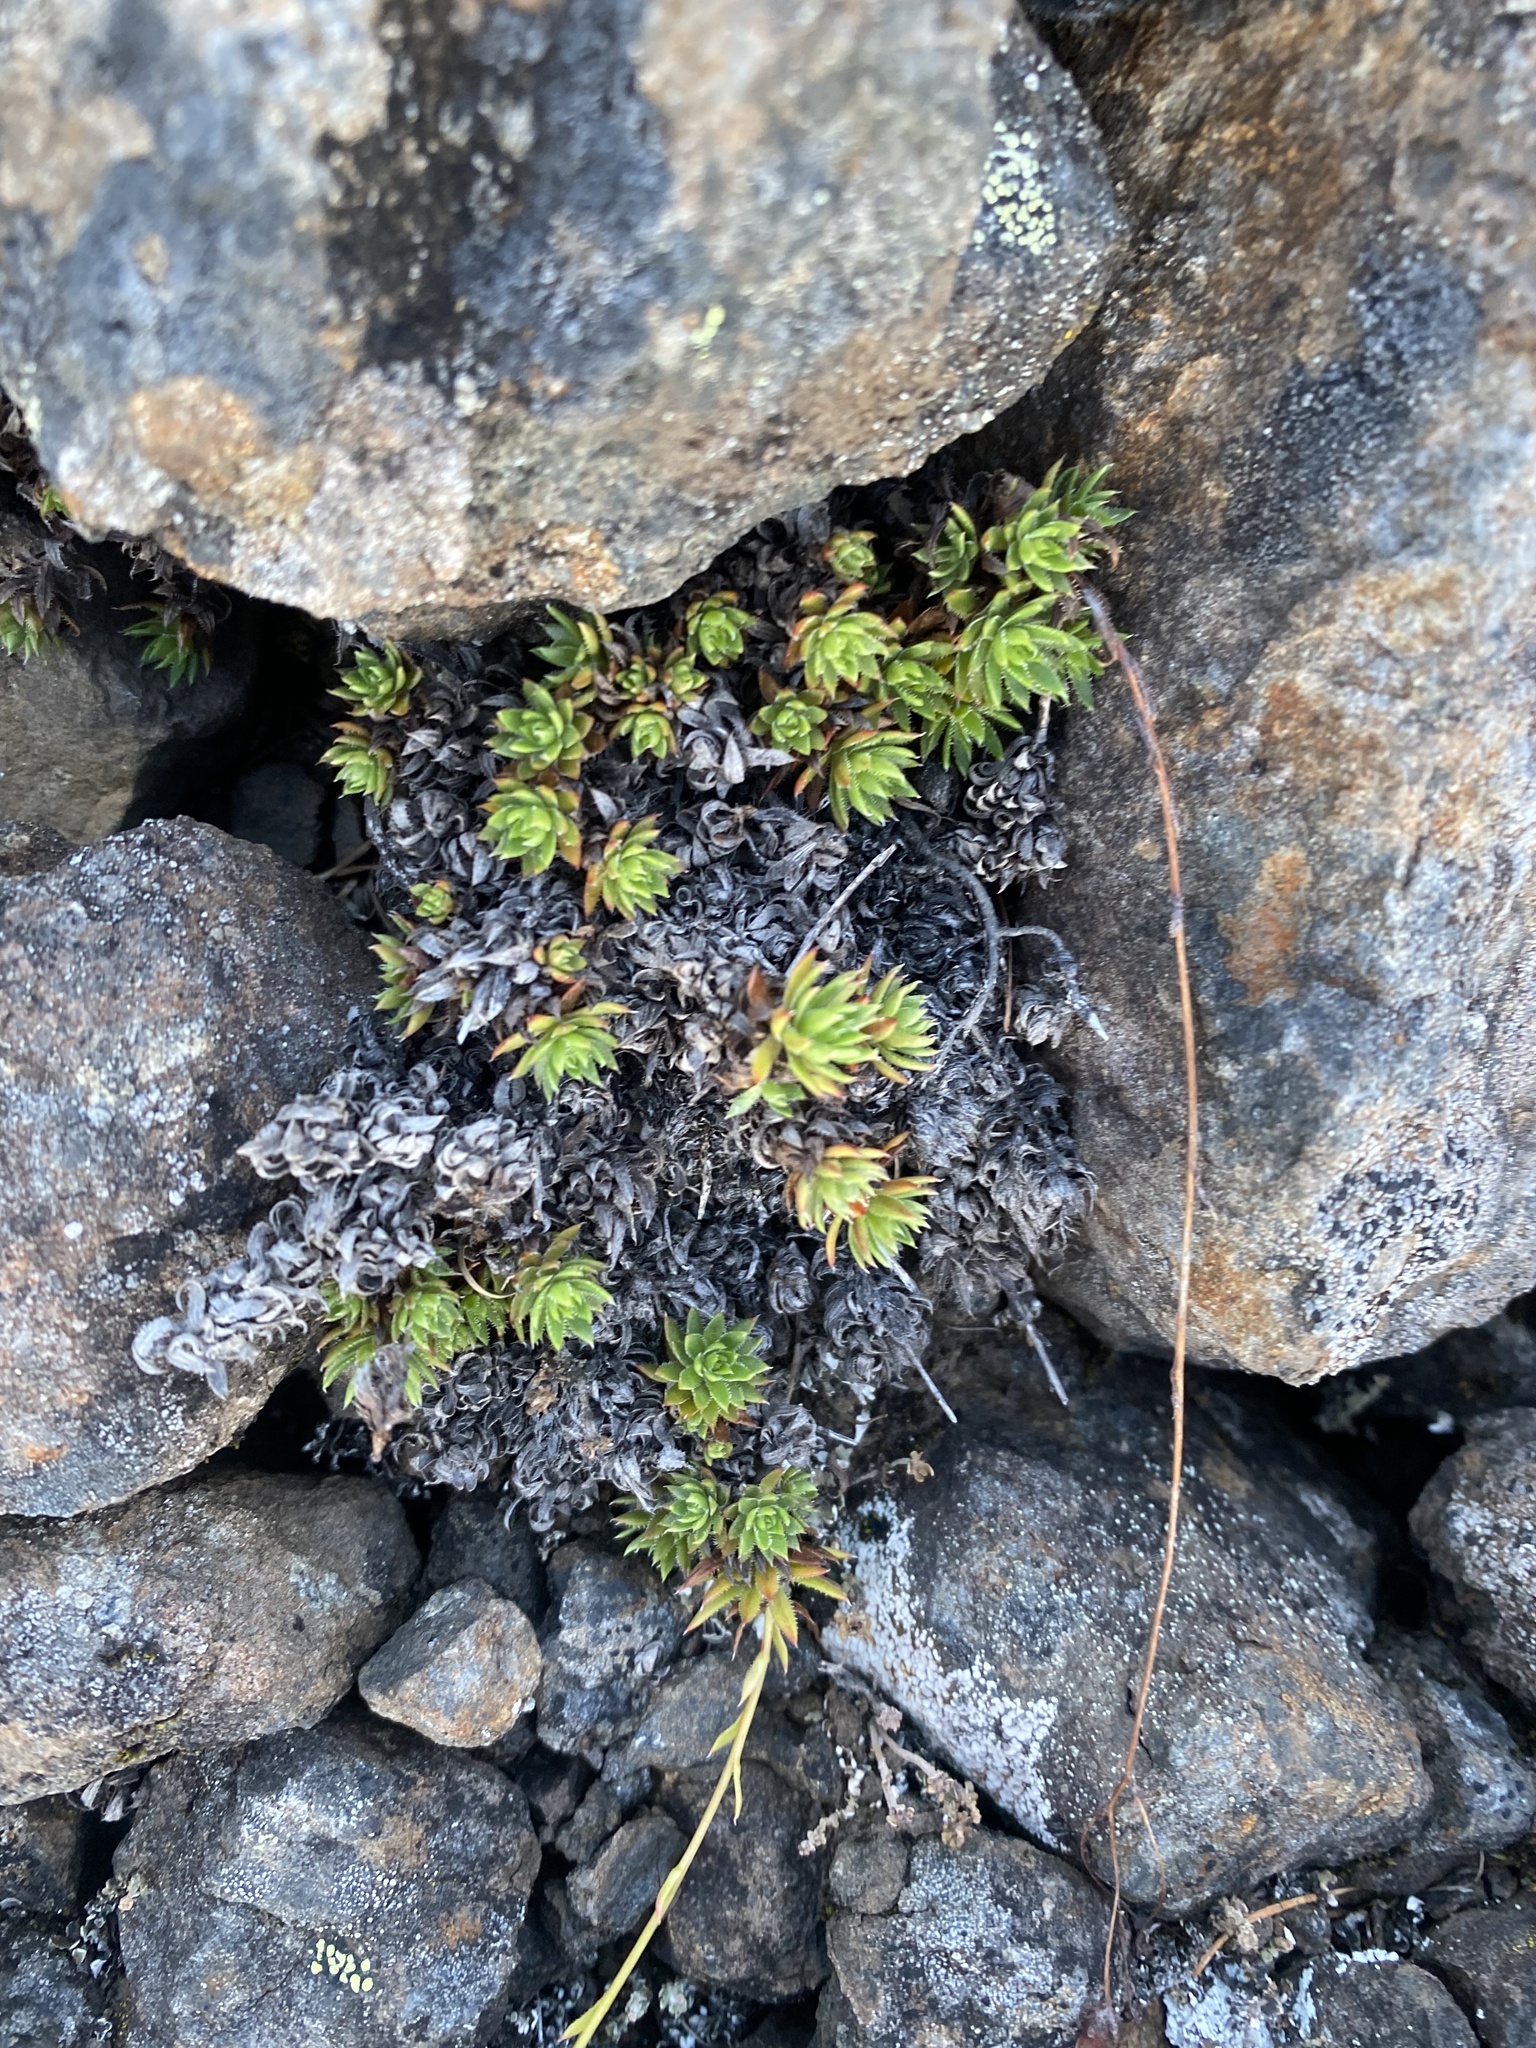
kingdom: Plantae
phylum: Tracheophyta
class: Magnoliopsida
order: Saxifragales
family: Saxifragaceae
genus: Saxifraga
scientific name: Saxifraga
